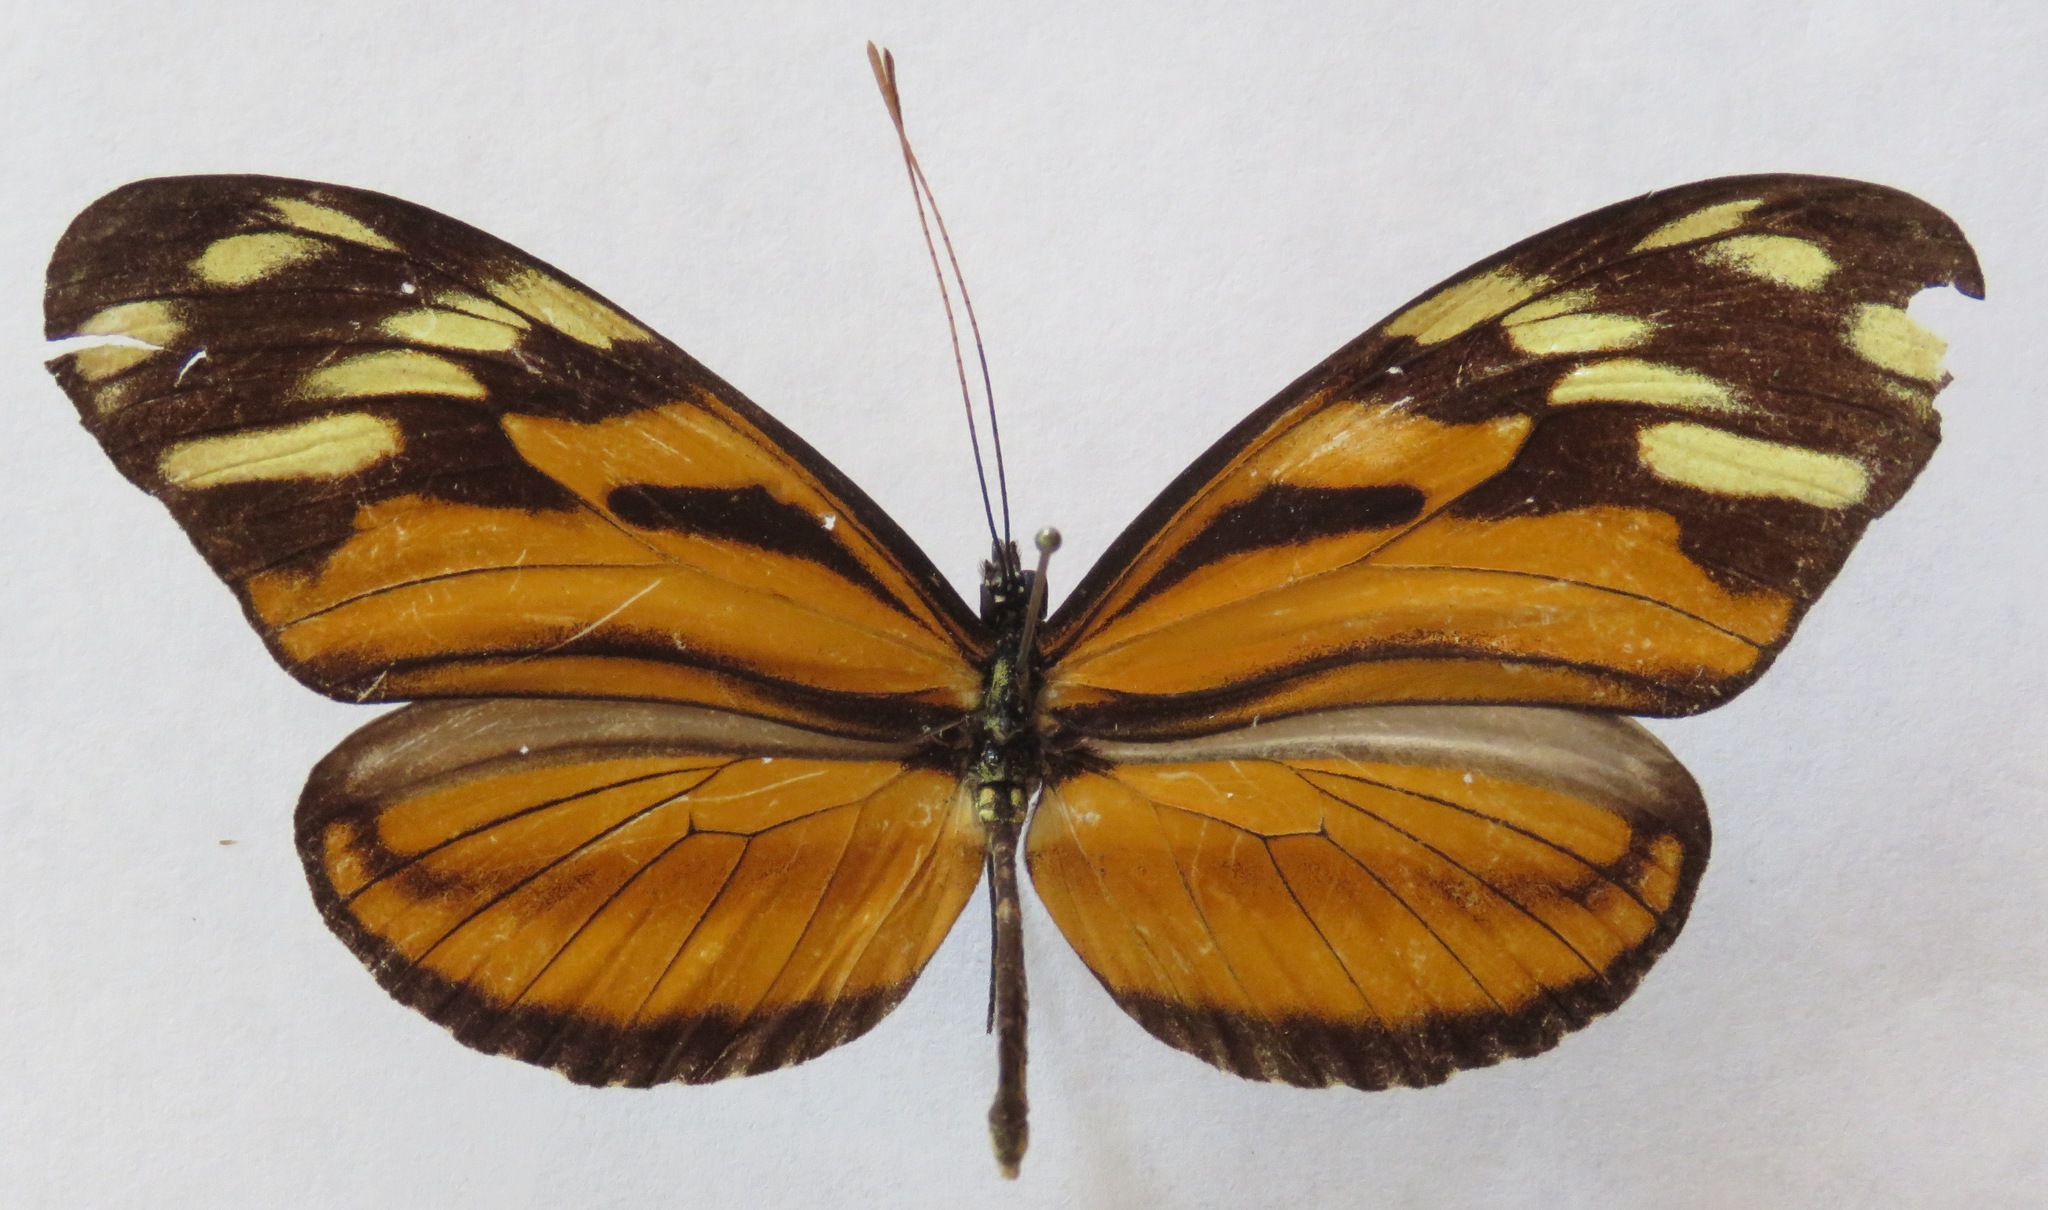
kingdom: Animalia
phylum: Arthropoda
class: Insecta
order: Lepidoptera
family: Nymphalidae
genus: Heliconius
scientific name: Heliconius ismenius
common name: Ismenius tiger
